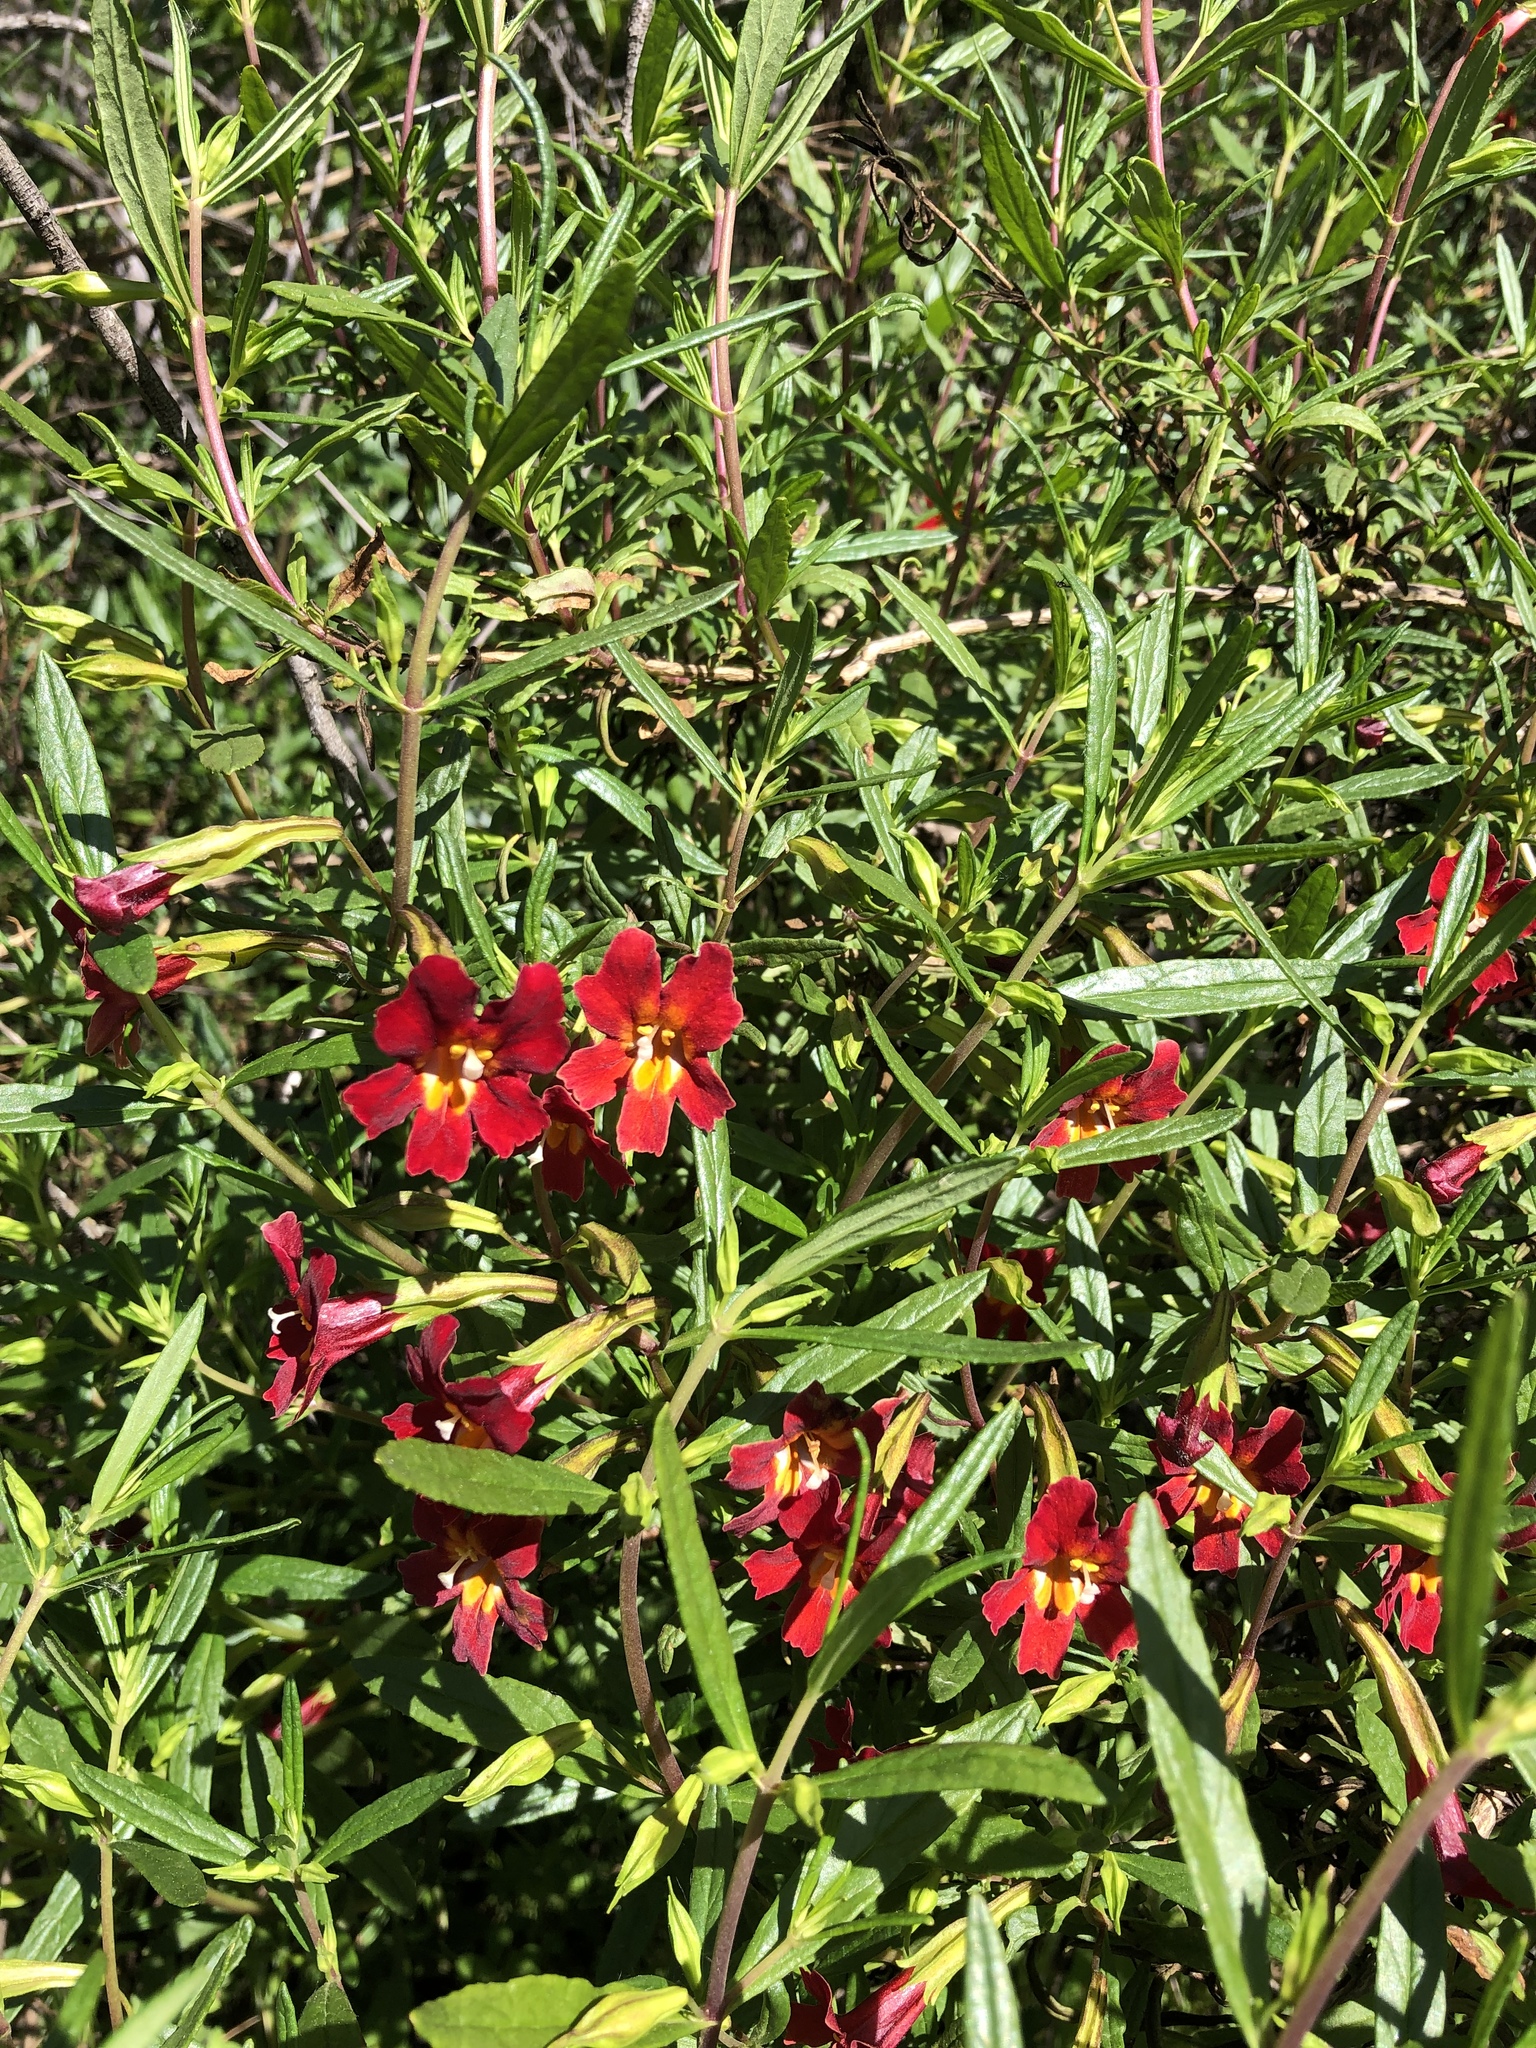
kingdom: Plantae
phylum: Tracheophyta
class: Magnoliopsida
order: Lamiales
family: Phrymaceae
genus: Diplacus
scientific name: Diplacus puniceus
